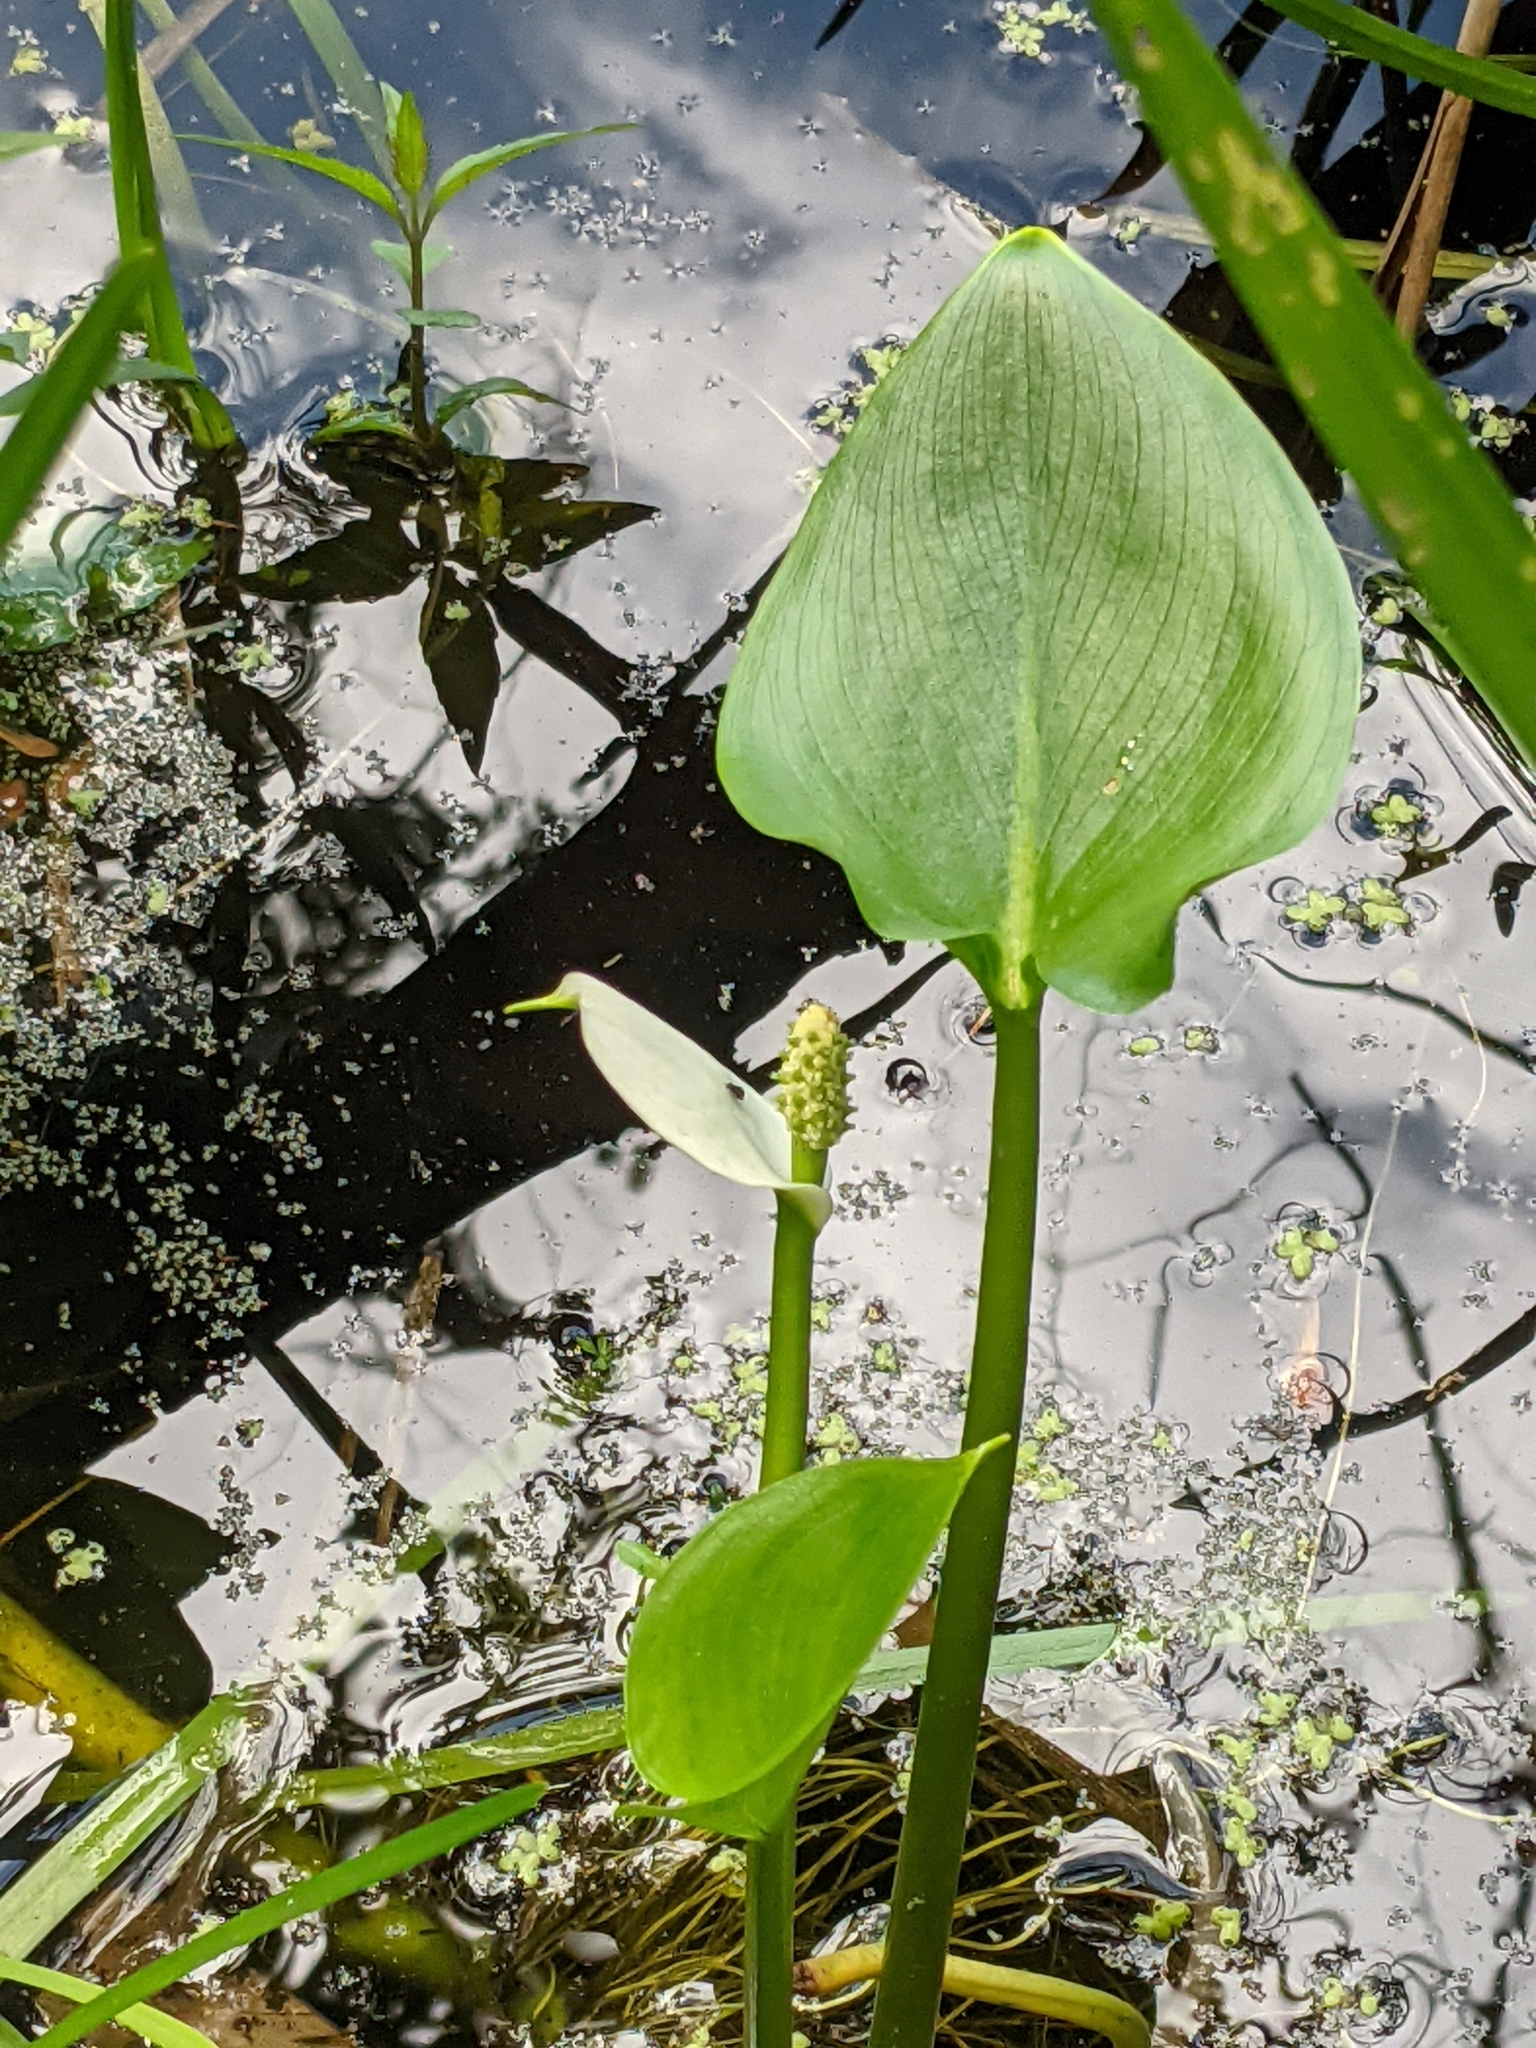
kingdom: Plantae
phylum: Tracheophyta
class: Liliopsida
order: Alismatales
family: Araceae
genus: Calla
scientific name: Calla palustris
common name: Bog arum
